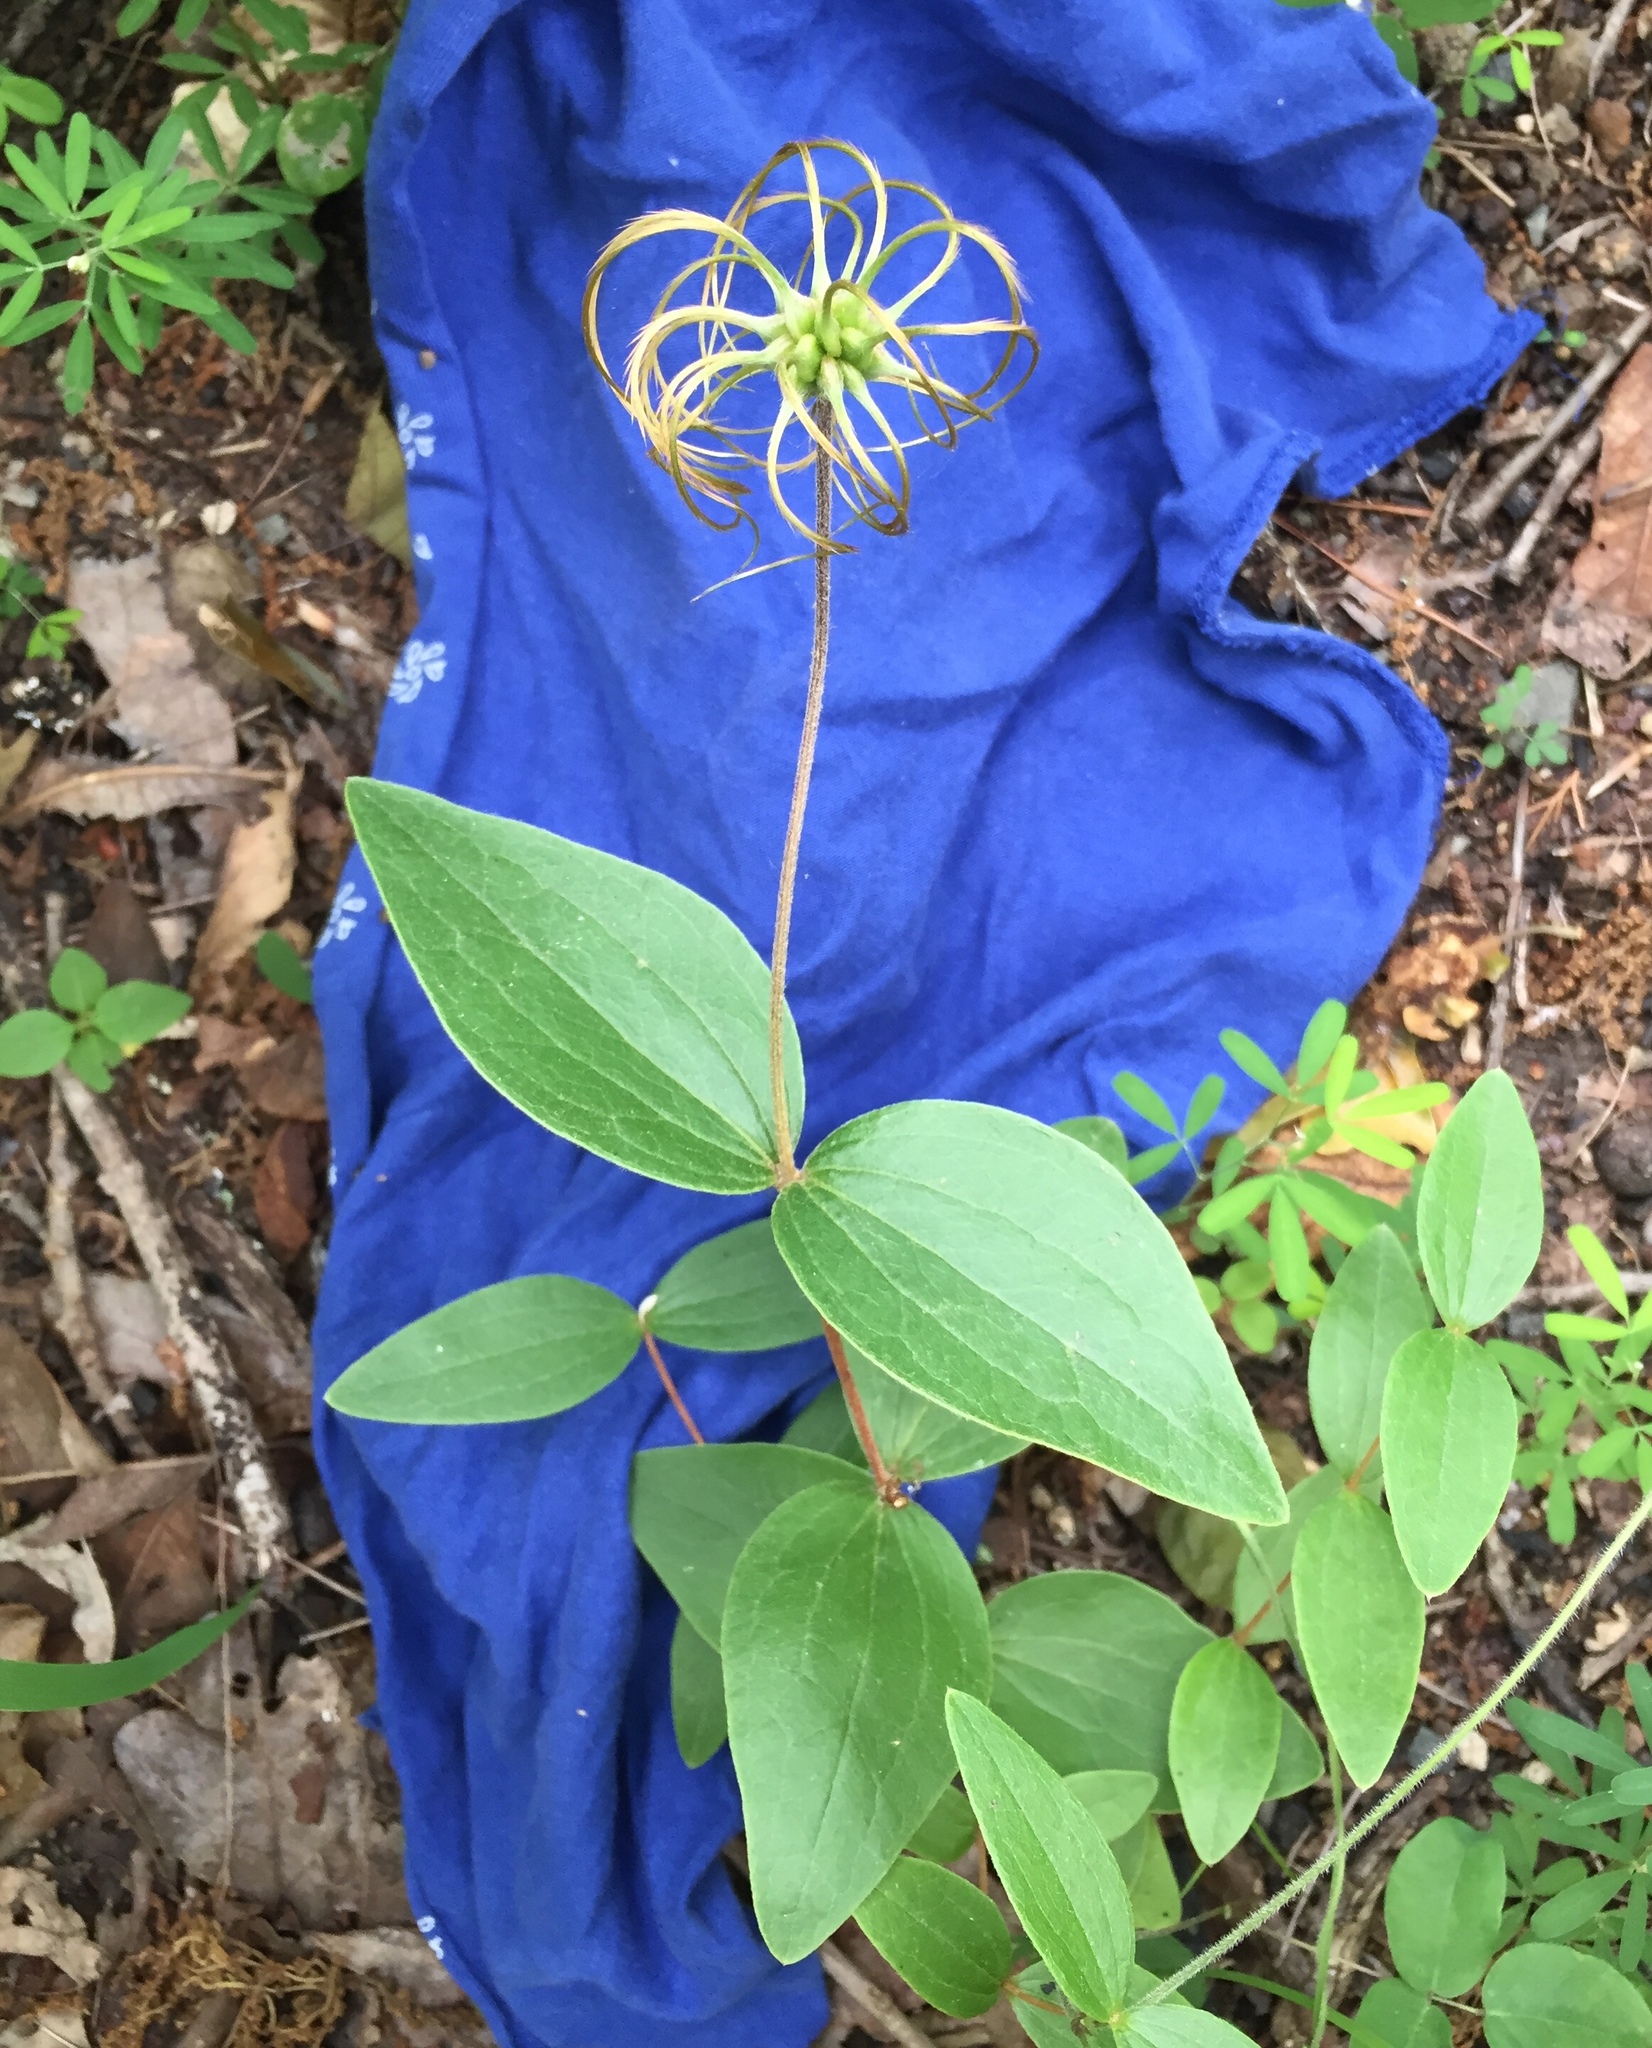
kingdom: Plantae
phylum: Tracheophyta
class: Magnoliopsida
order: Ranunculales
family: Ranunculaceae
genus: Clematis
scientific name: Clematis ochroleuca
